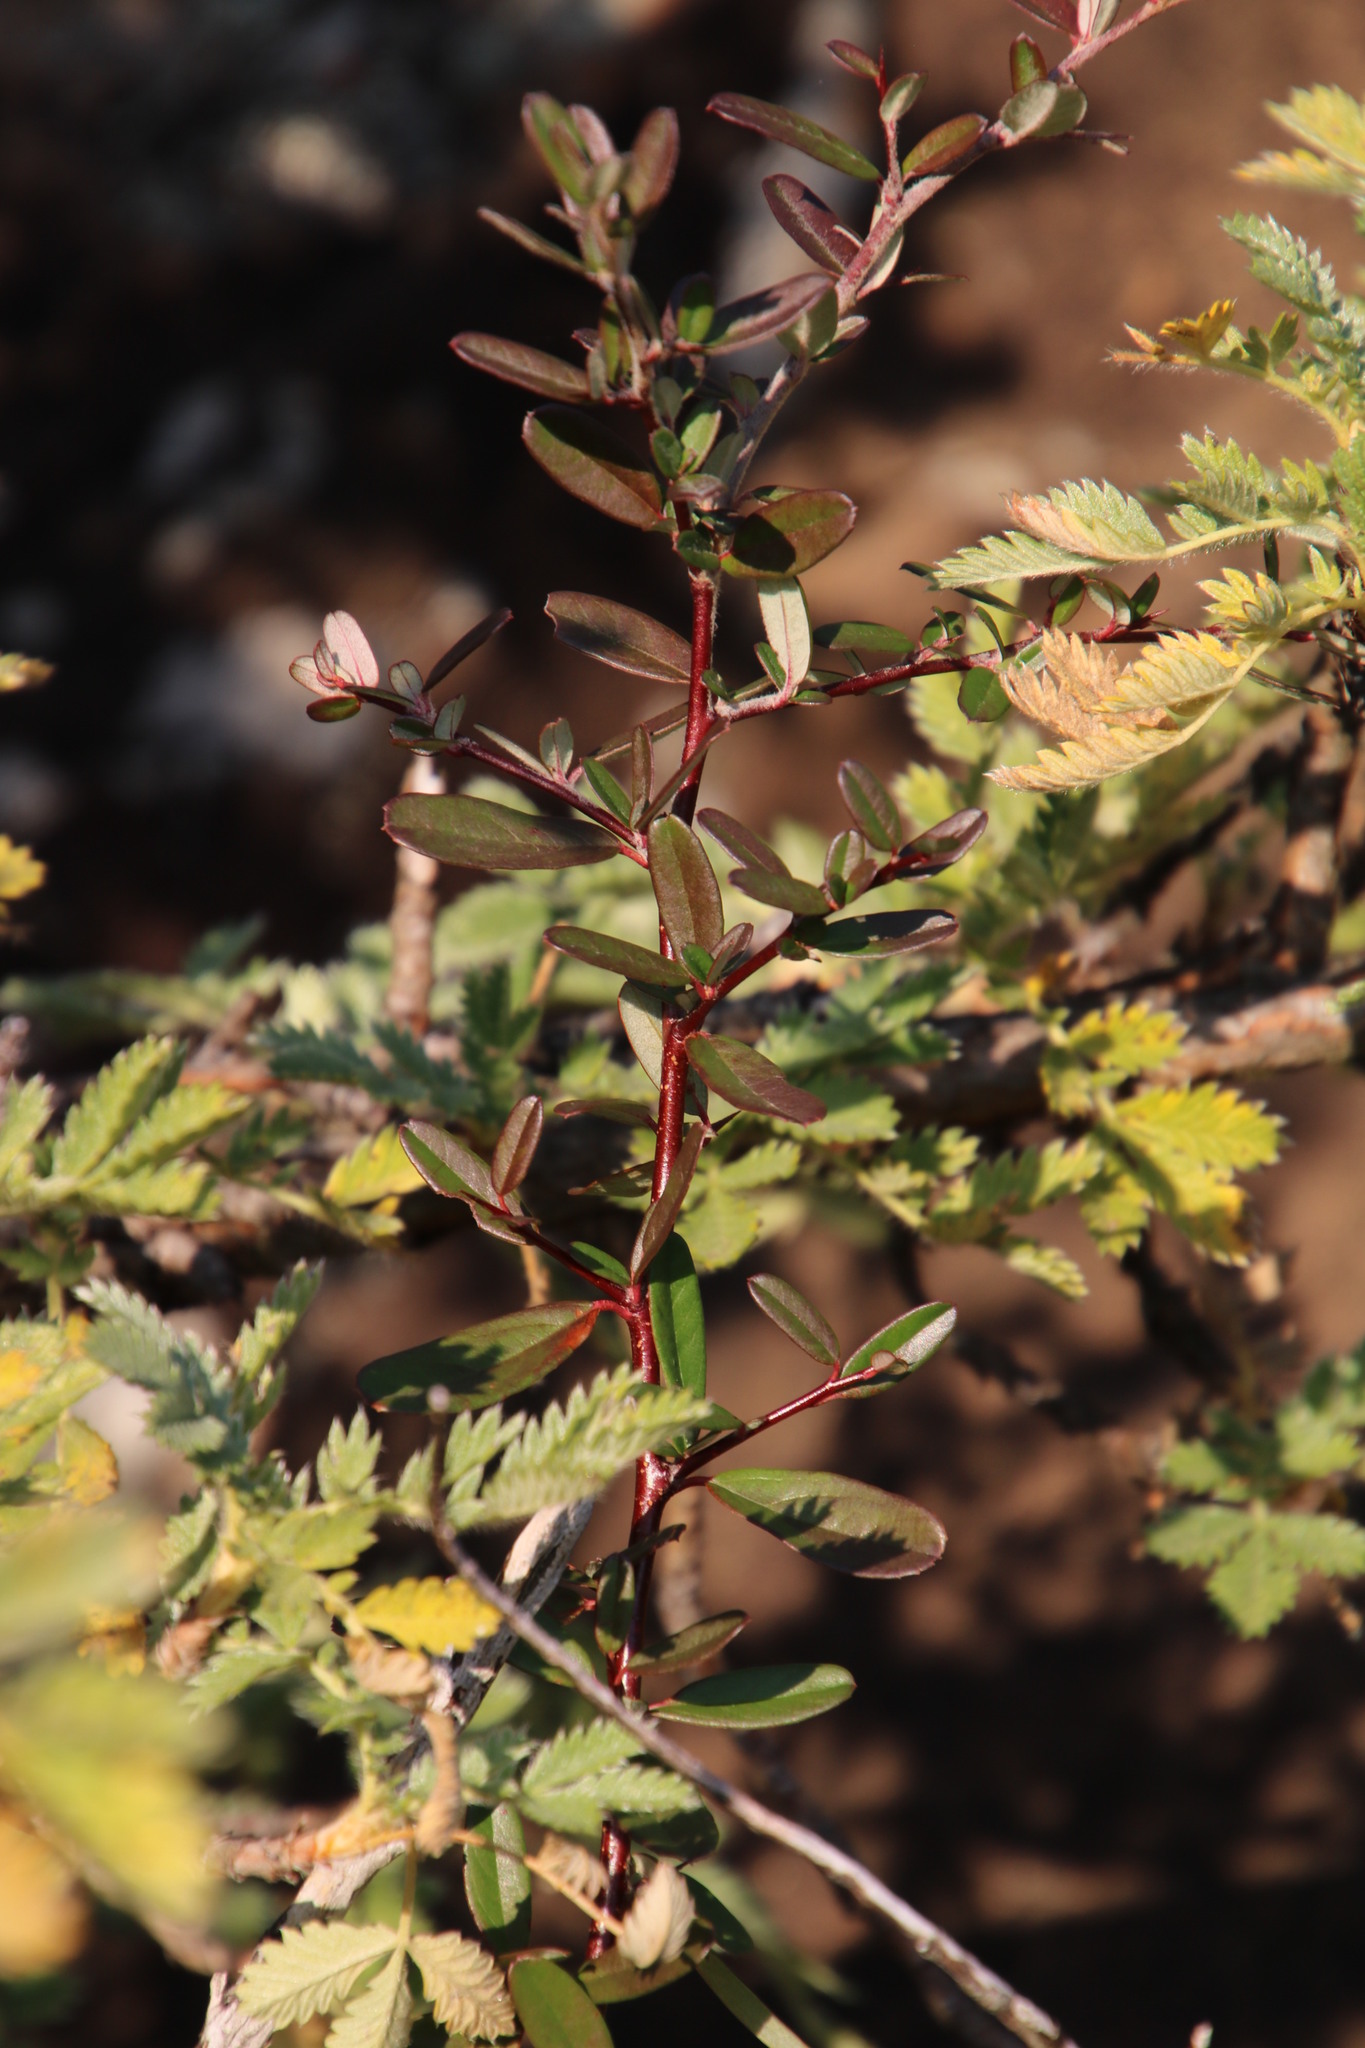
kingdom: Plantae
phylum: Tracheophyta
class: Magnoliopsida
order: Rosales
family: Rosaceae
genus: Cotoneaster
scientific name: Cotoneaster pannosus
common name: Silverleaf cotoneaster
